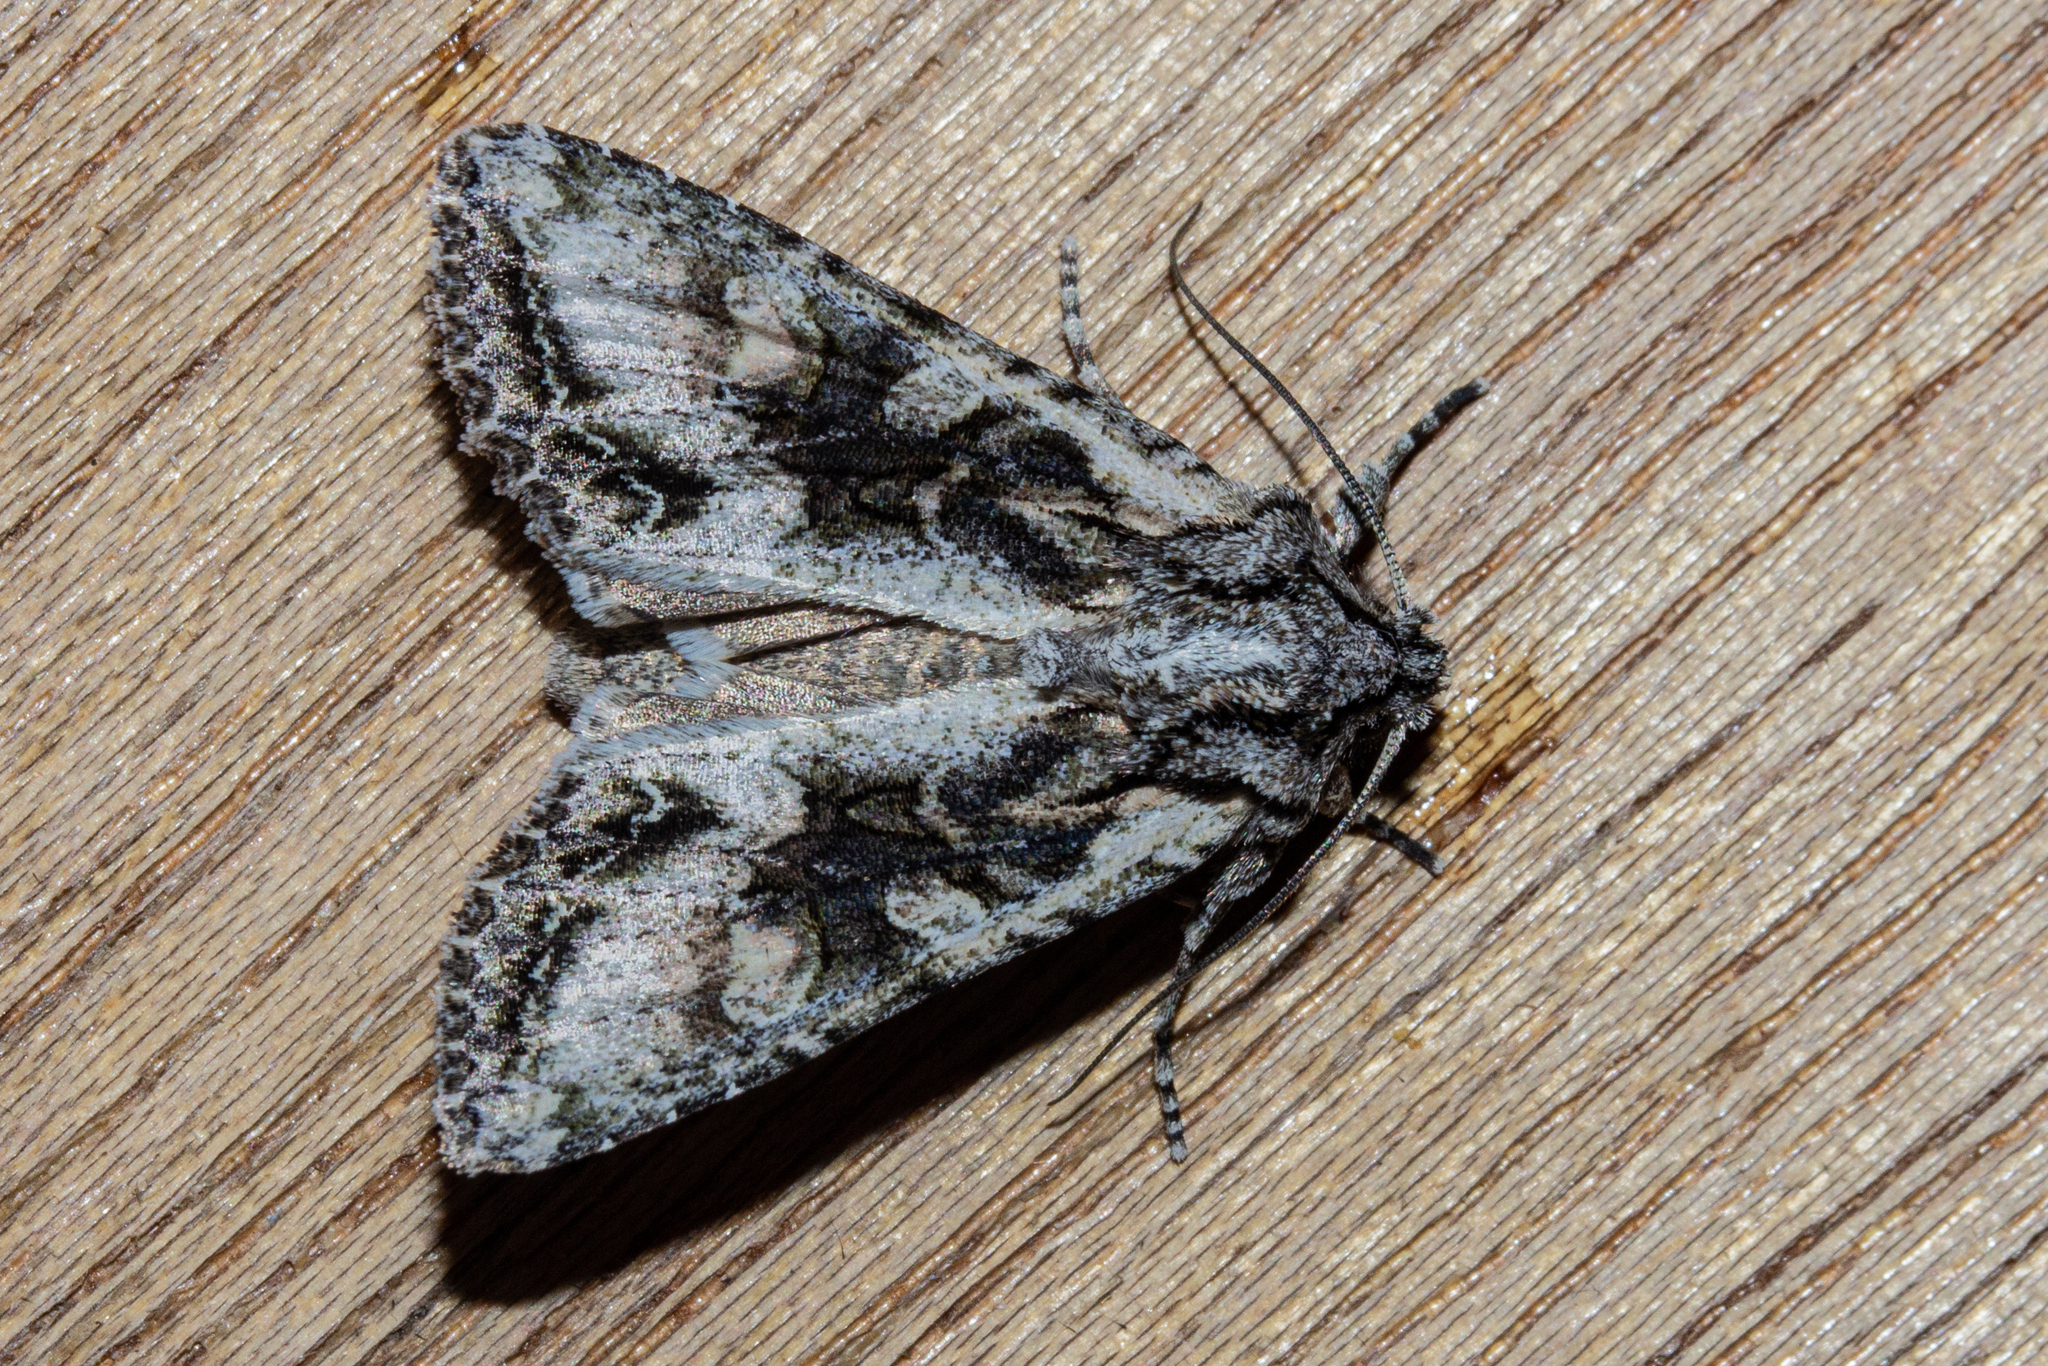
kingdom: Animalia
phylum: Arthropoda
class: Insecta
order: Lepidoptera
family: Noctuidae
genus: Ichneutica
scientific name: Ichneutica mutans
